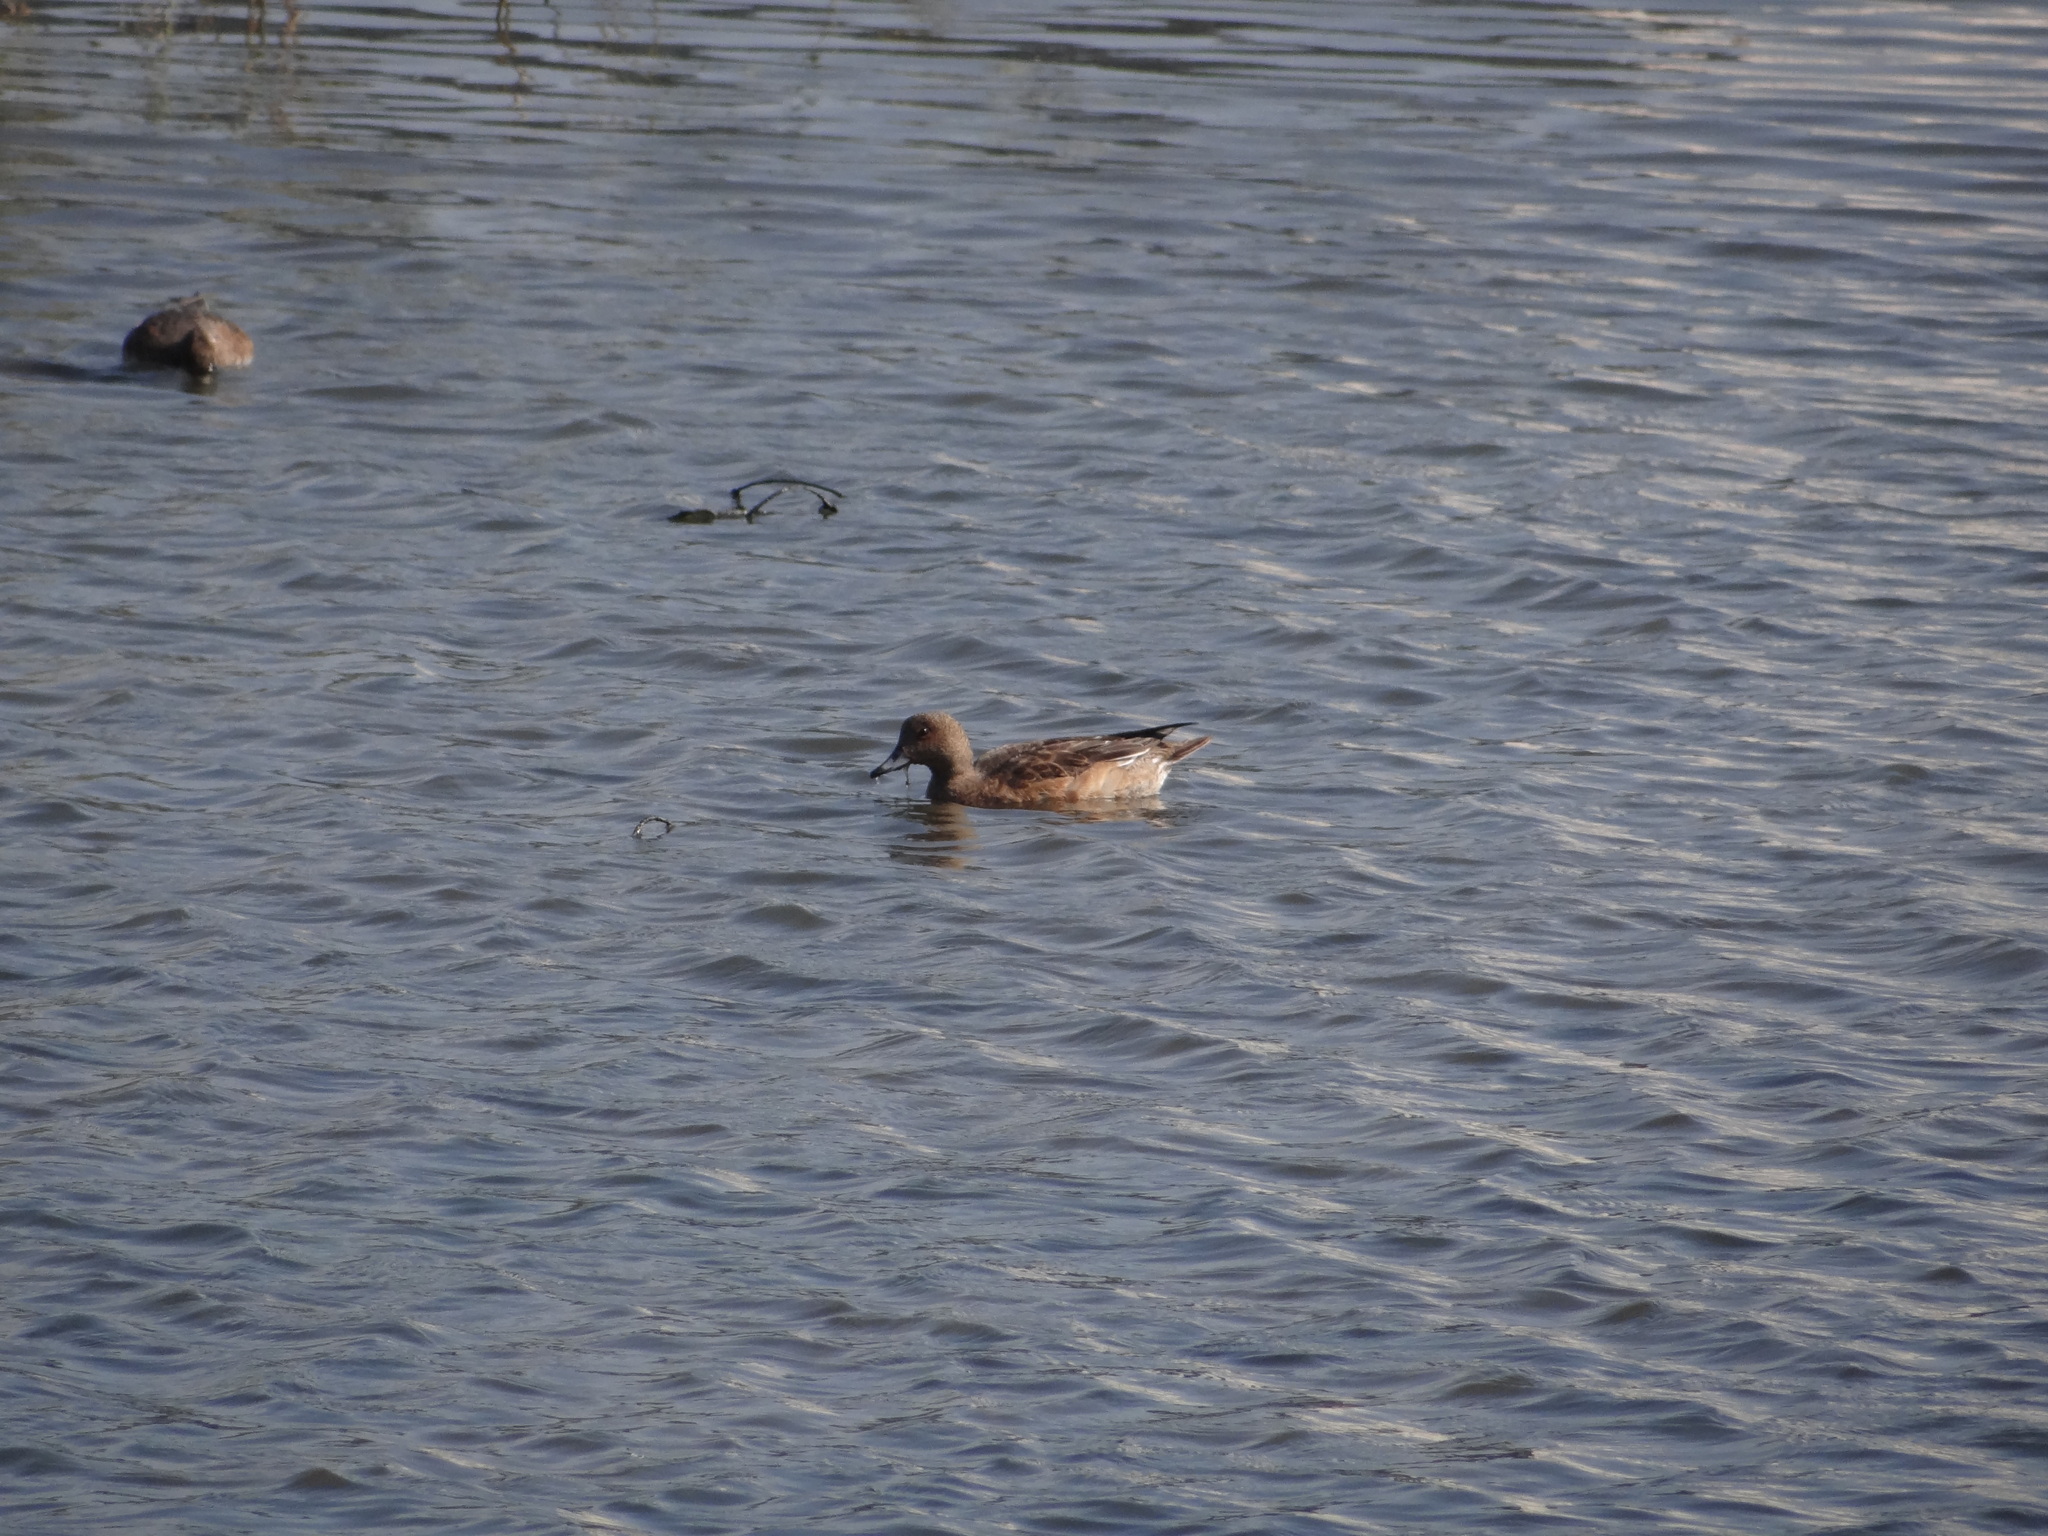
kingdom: Animalia
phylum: Chordata
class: Aves
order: Anseriformes
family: Anatidae
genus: Anas
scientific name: Anas acuta
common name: Northern pintail
